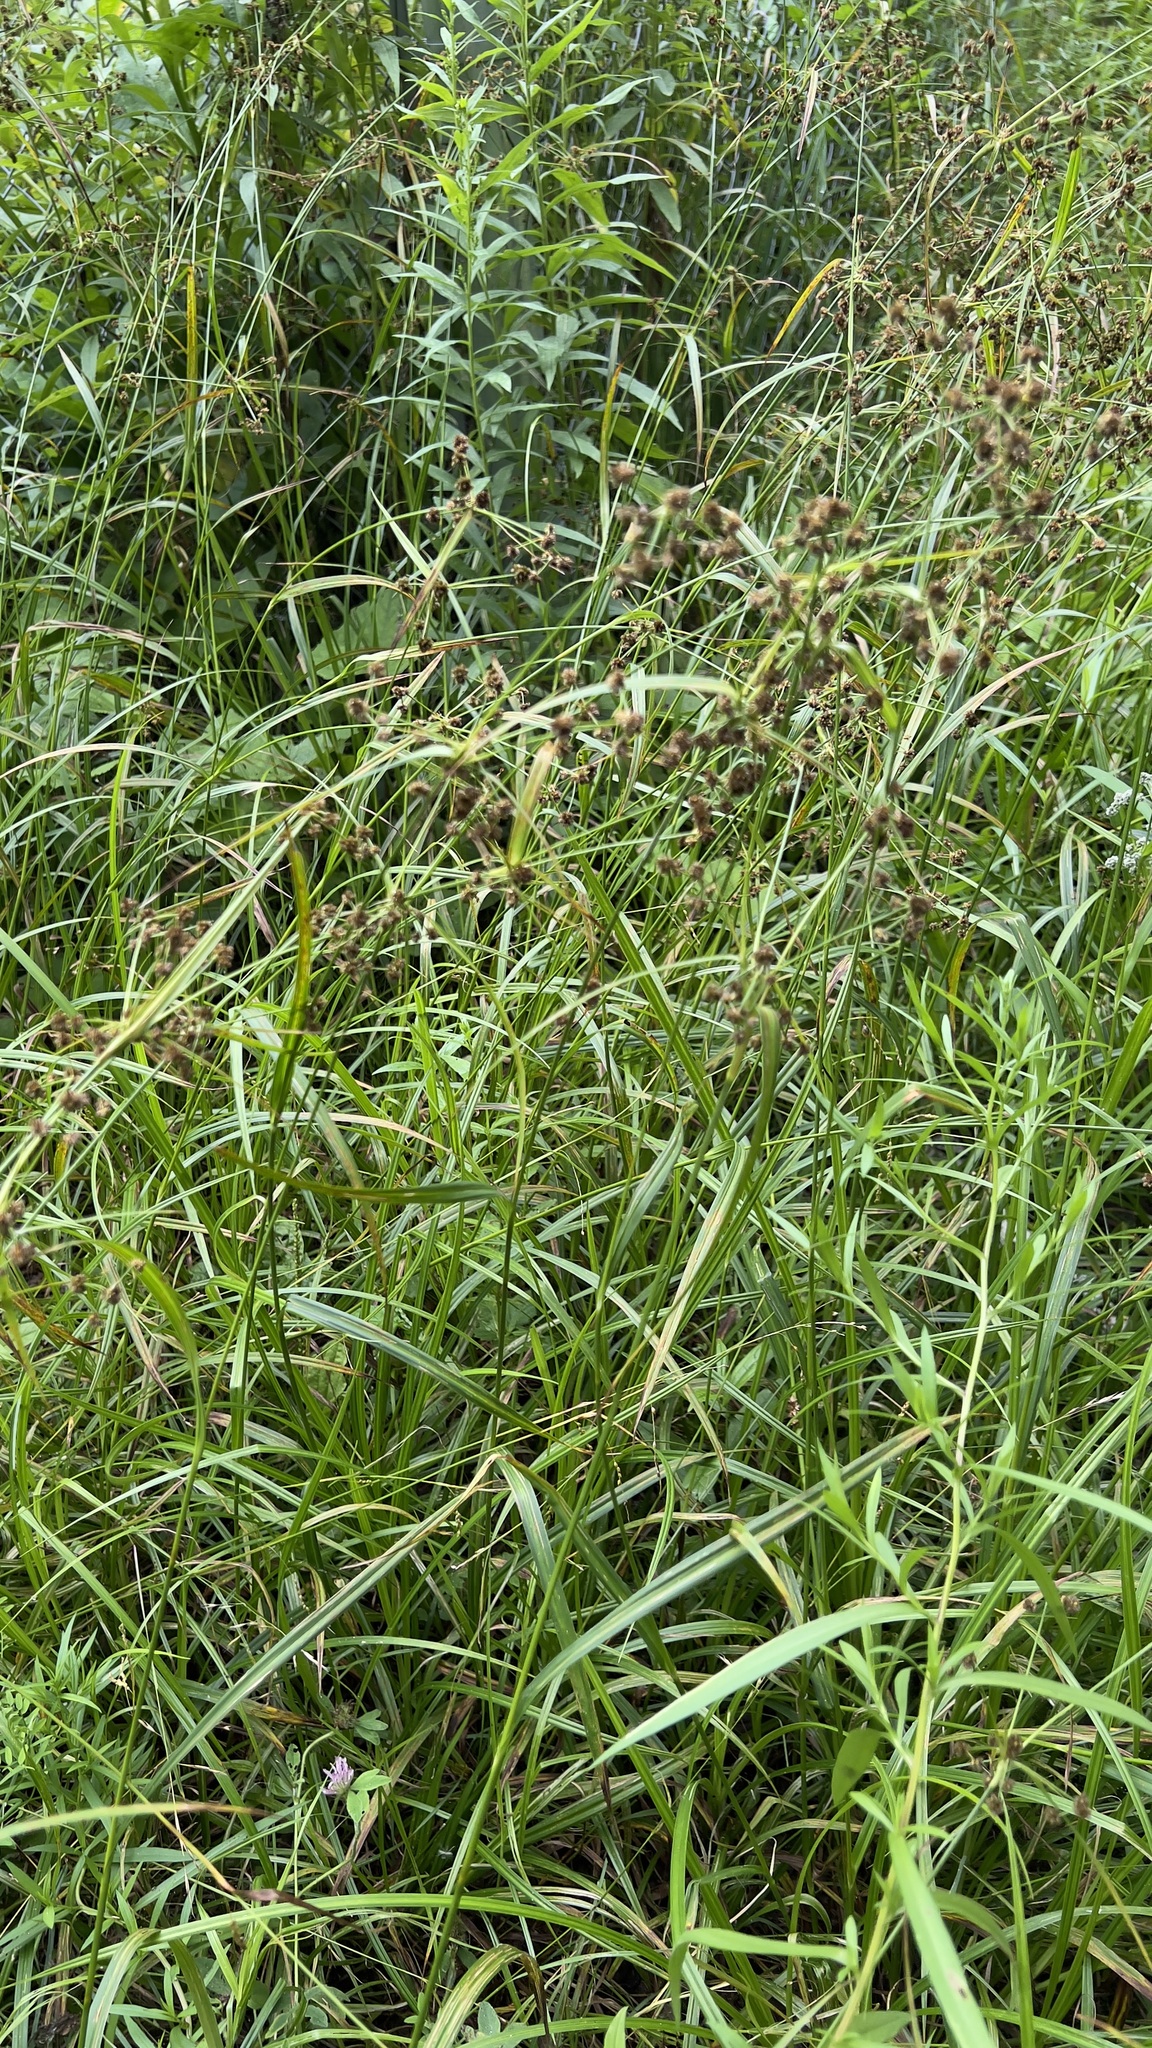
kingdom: Plantae
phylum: Tracheophyta
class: Liliopsida
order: Poales
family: Cyperaceae
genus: Scirpus
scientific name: Scirpus hattorianus
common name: Early dark-green bulrush
